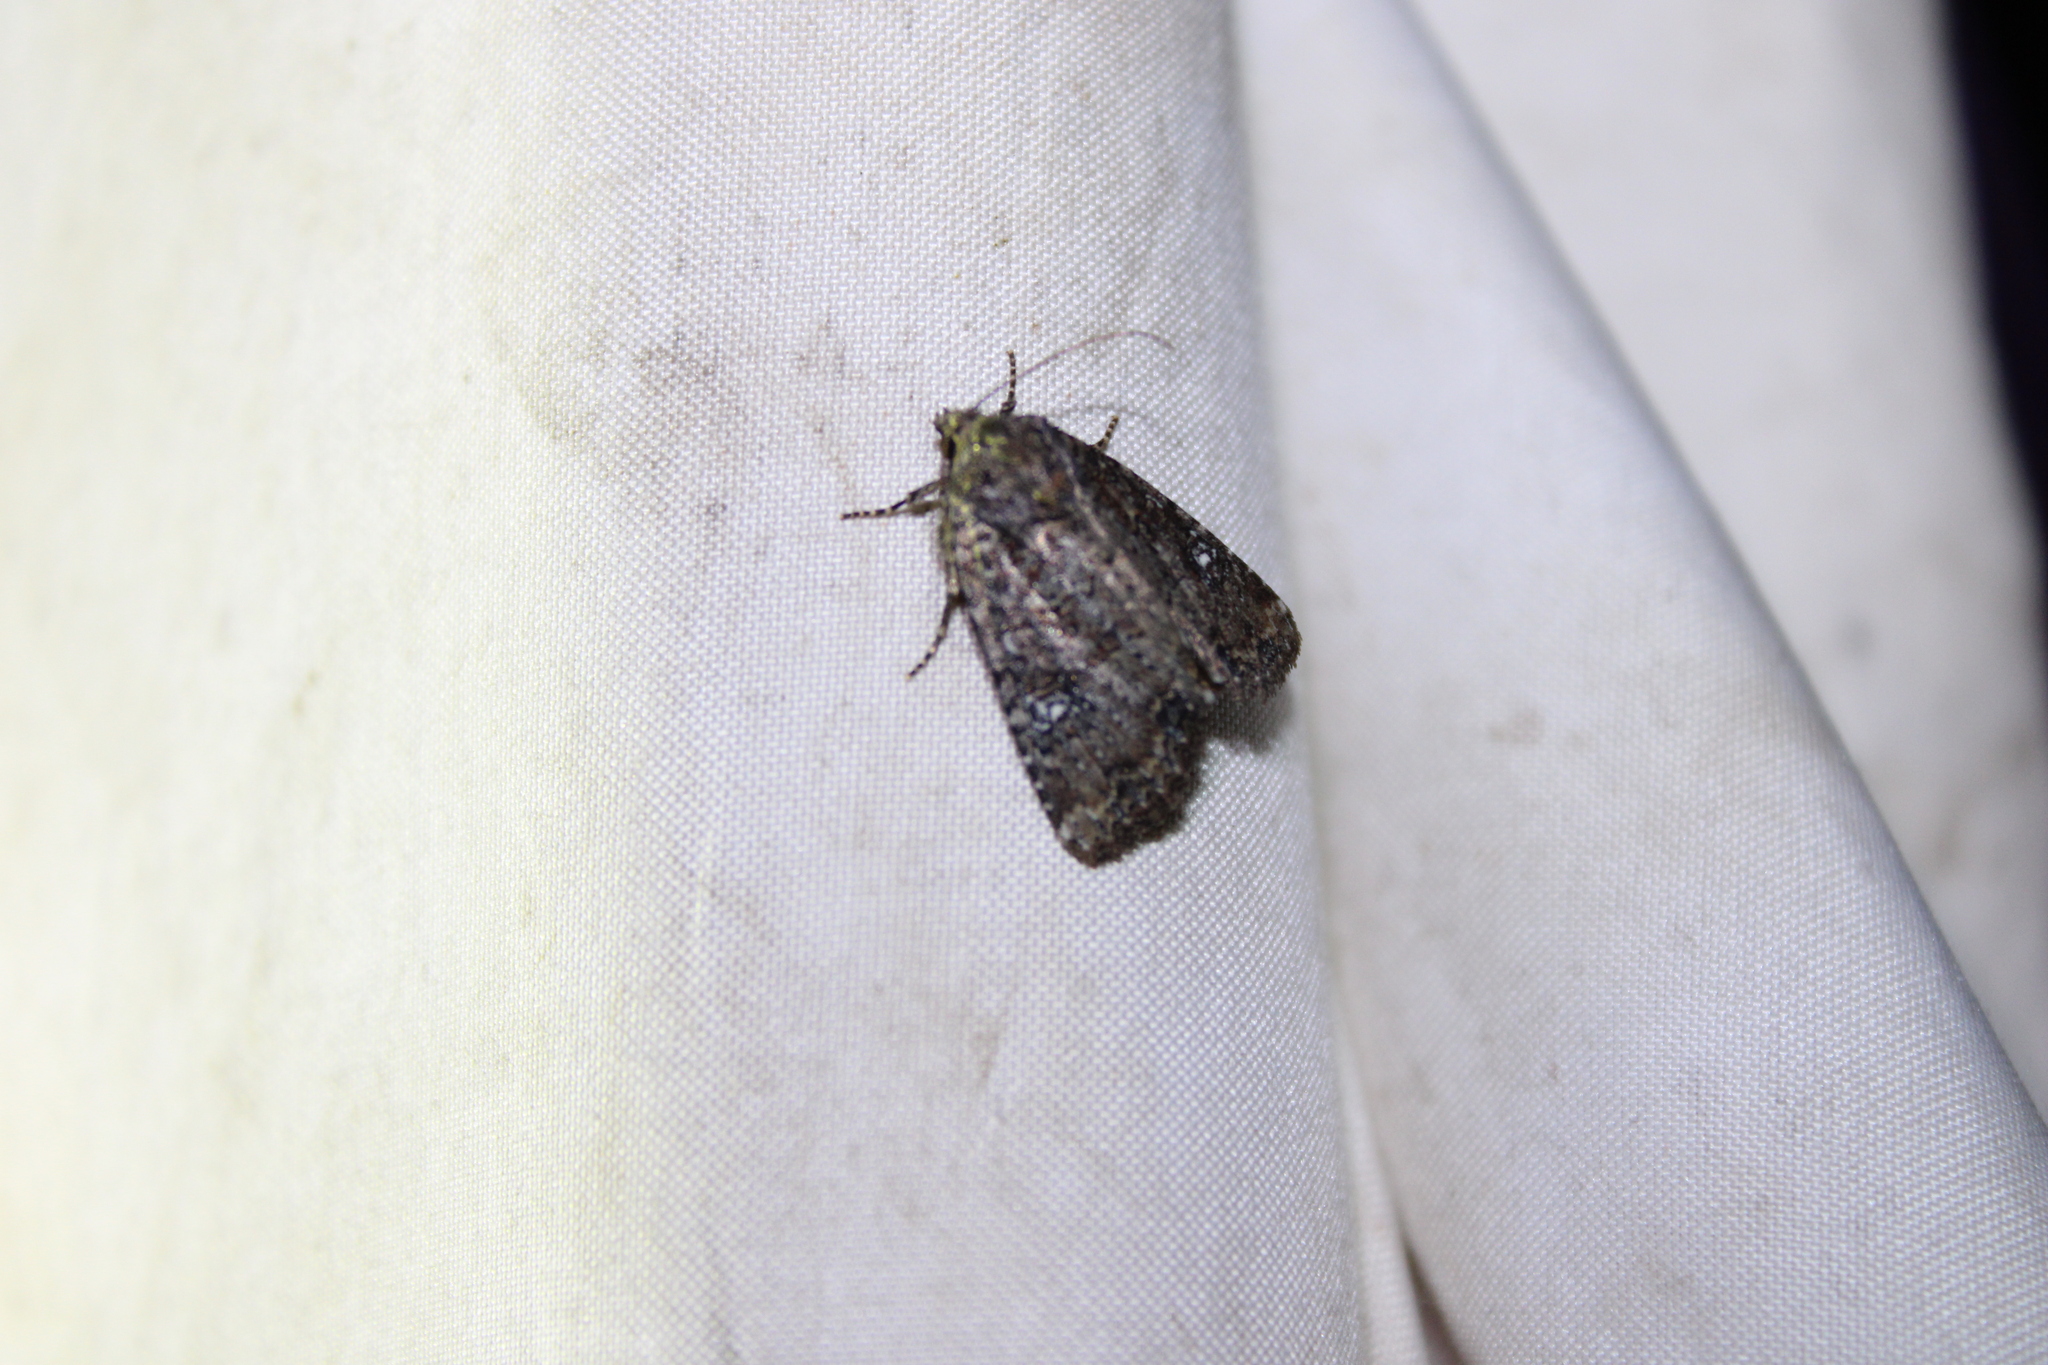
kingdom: Animalia
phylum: Arthropoda
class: Insecta
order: Lepidoptera
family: Noctuidae
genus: Condica
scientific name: Condica vecors
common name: Dusky groundling
